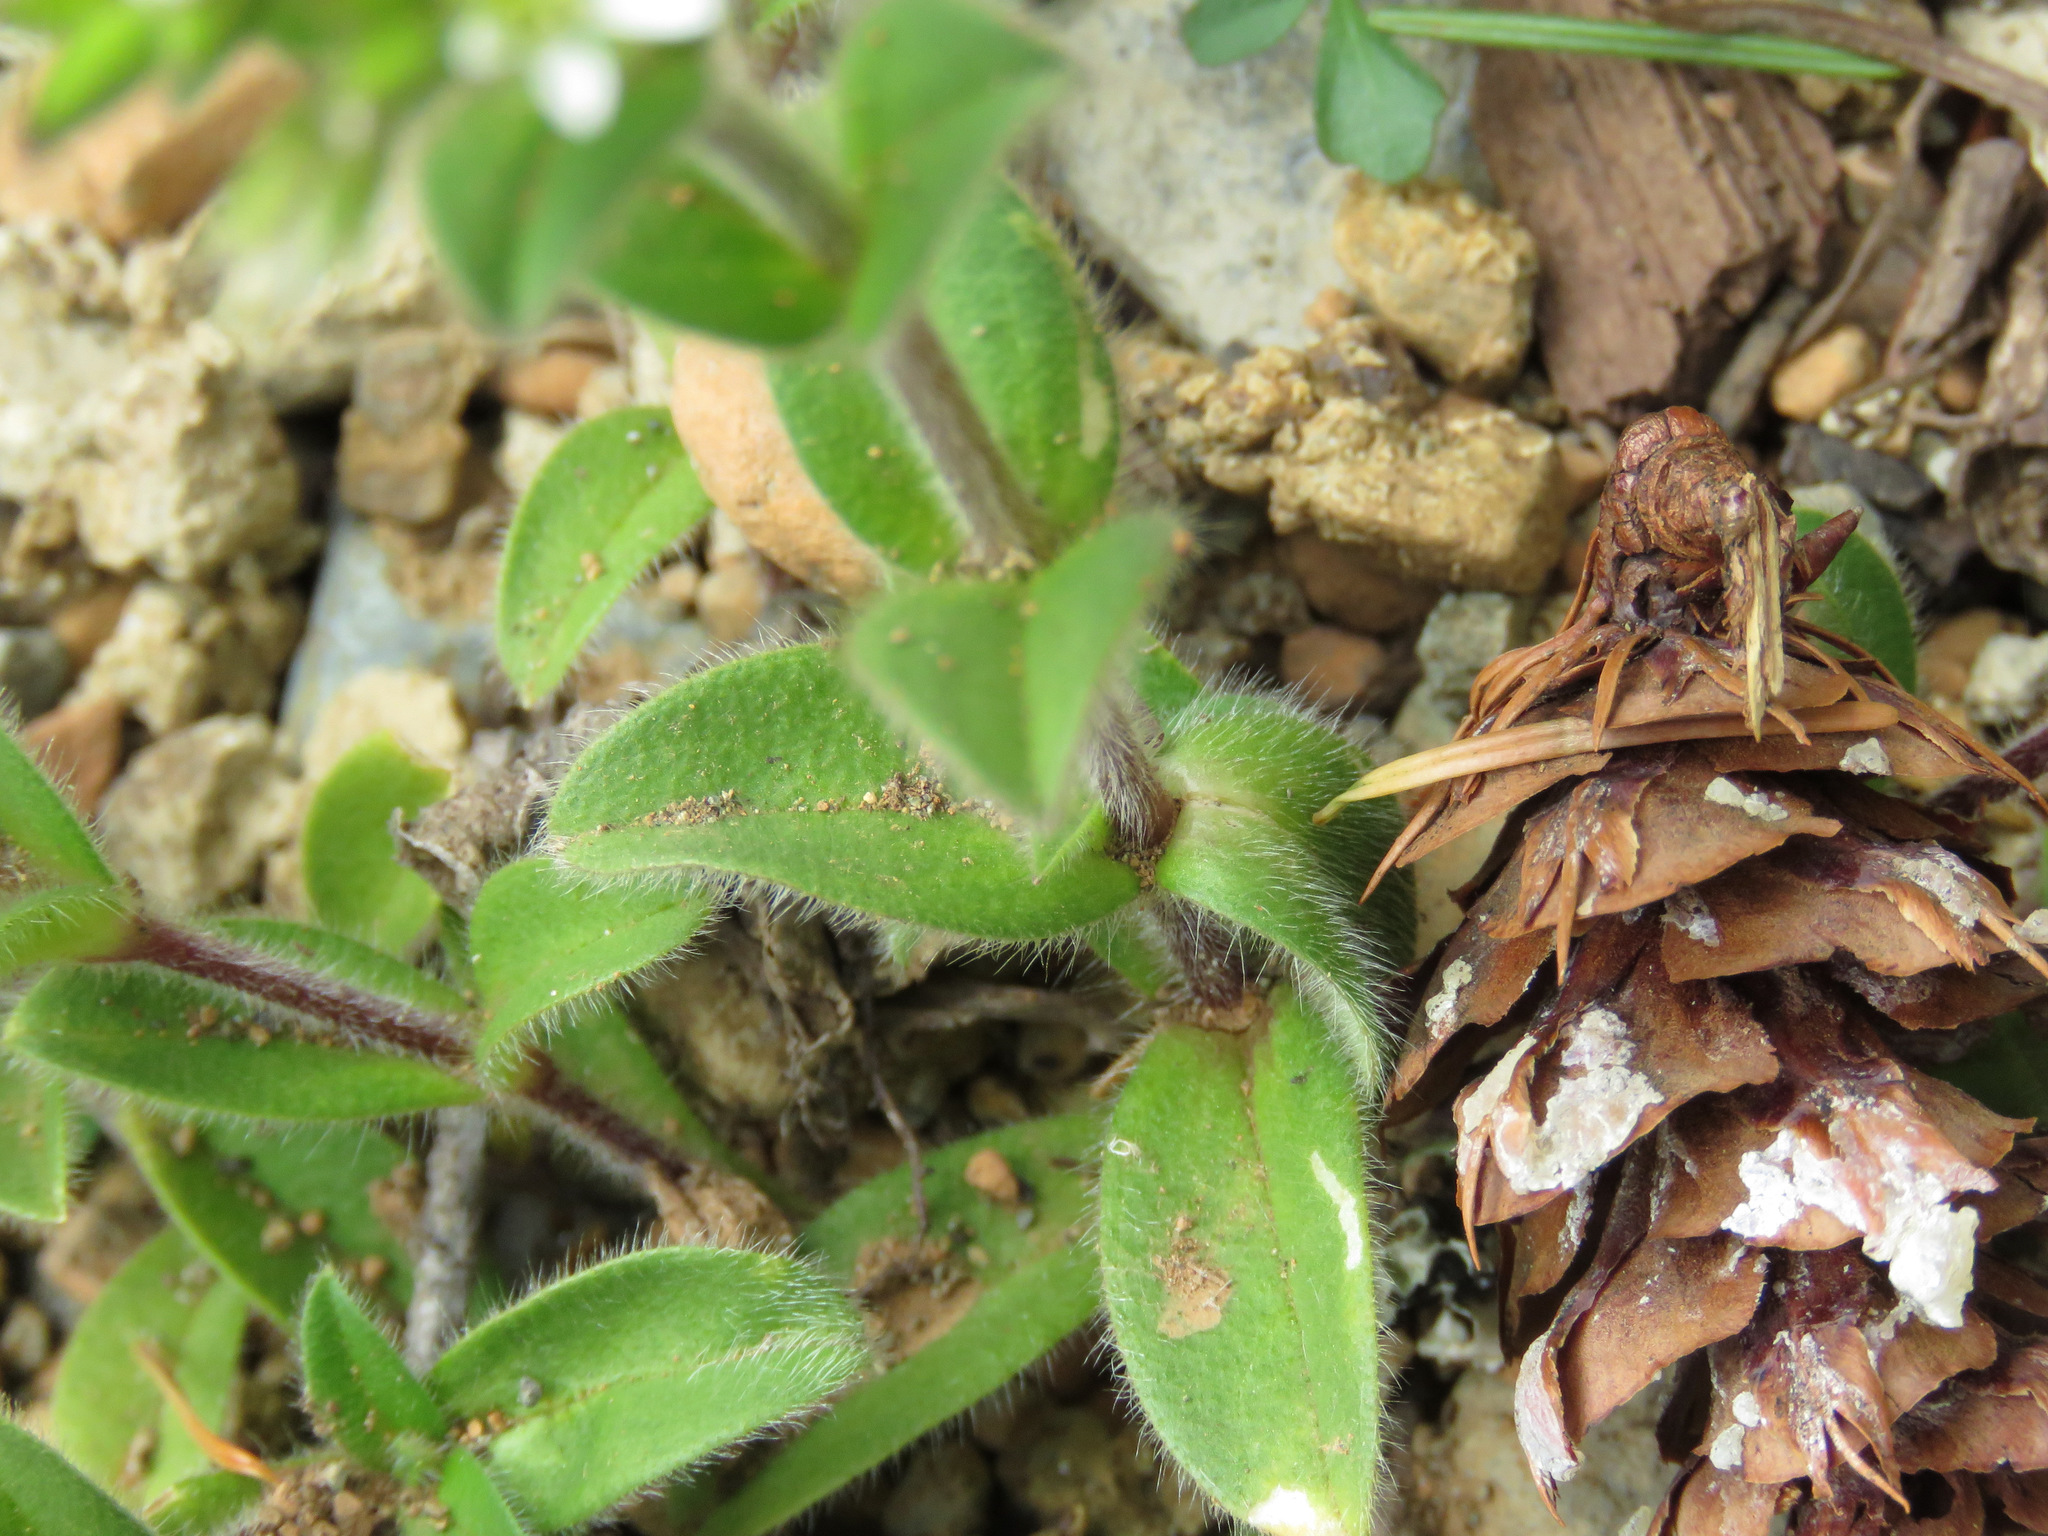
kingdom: Plantae
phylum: Tracheophyta
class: Magnoliopsida
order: Caryophyllales
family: Caryophyllaceae
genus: Cerastium
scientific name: Cerastium glomeratum
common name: Sticky chickweed
